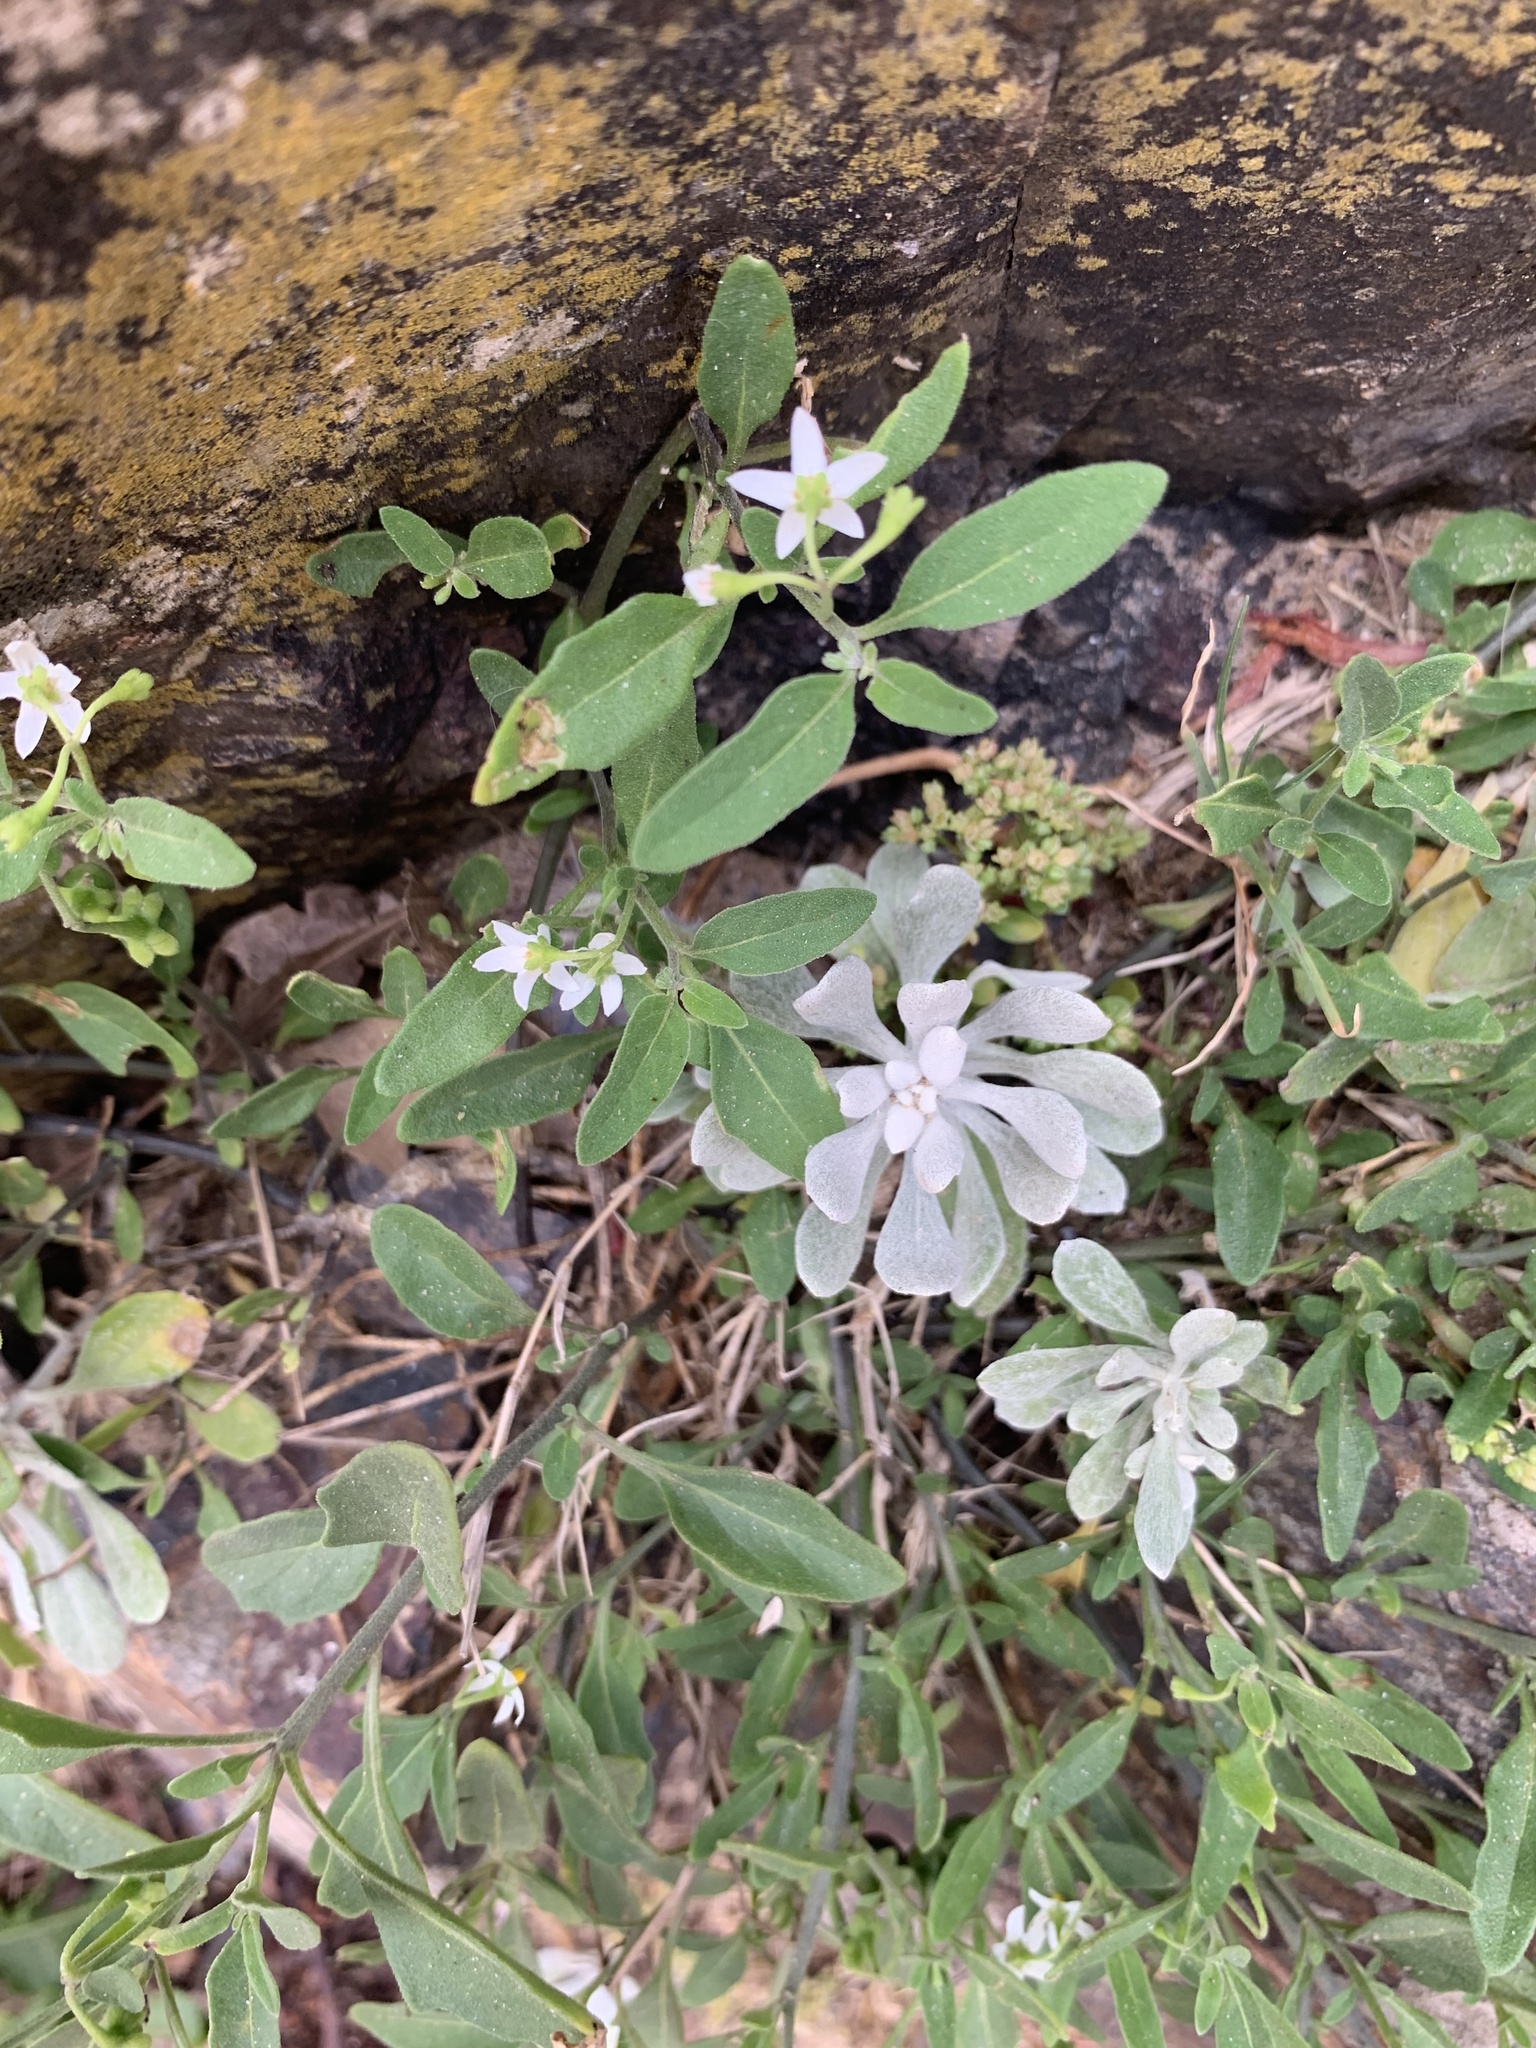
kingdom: Plantae
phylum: Tracheophyta
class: Magnoliopsida
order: Solanales
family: Solanaceae
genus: Solanum
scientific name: Solanum chenopodioides
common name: Tall nightshade
